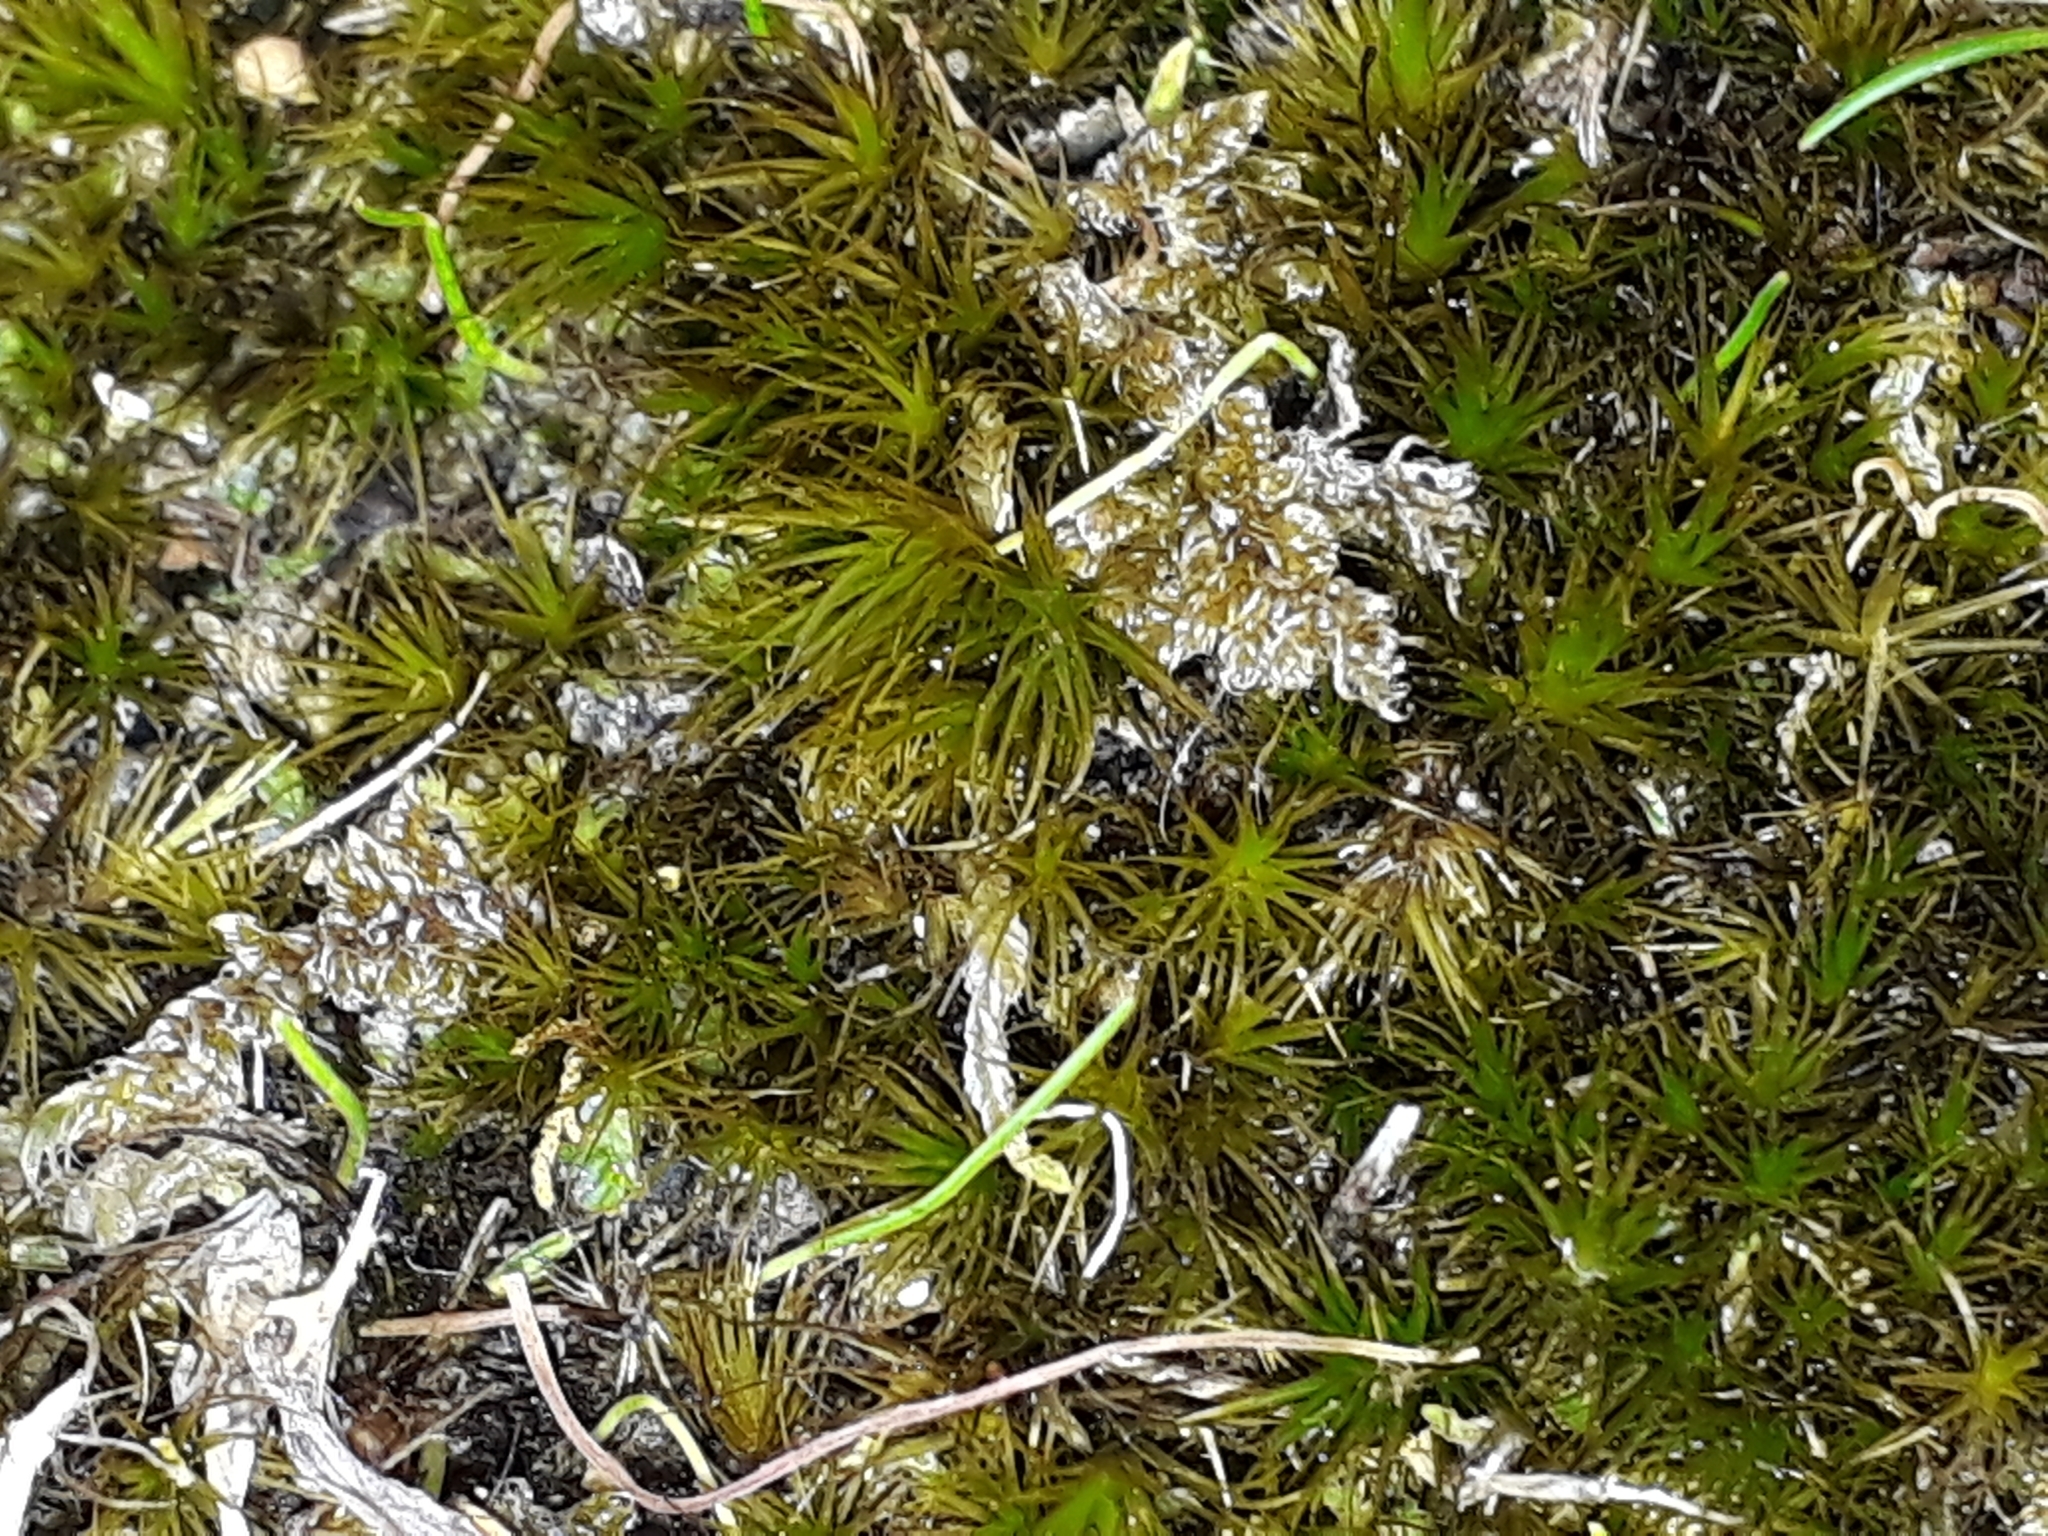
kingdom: Plantae
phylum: Bryophyta
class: Bryopsida
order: Dicranales
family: Leucobryaceae
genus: Campylopus
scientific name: Campylopus clavatus
